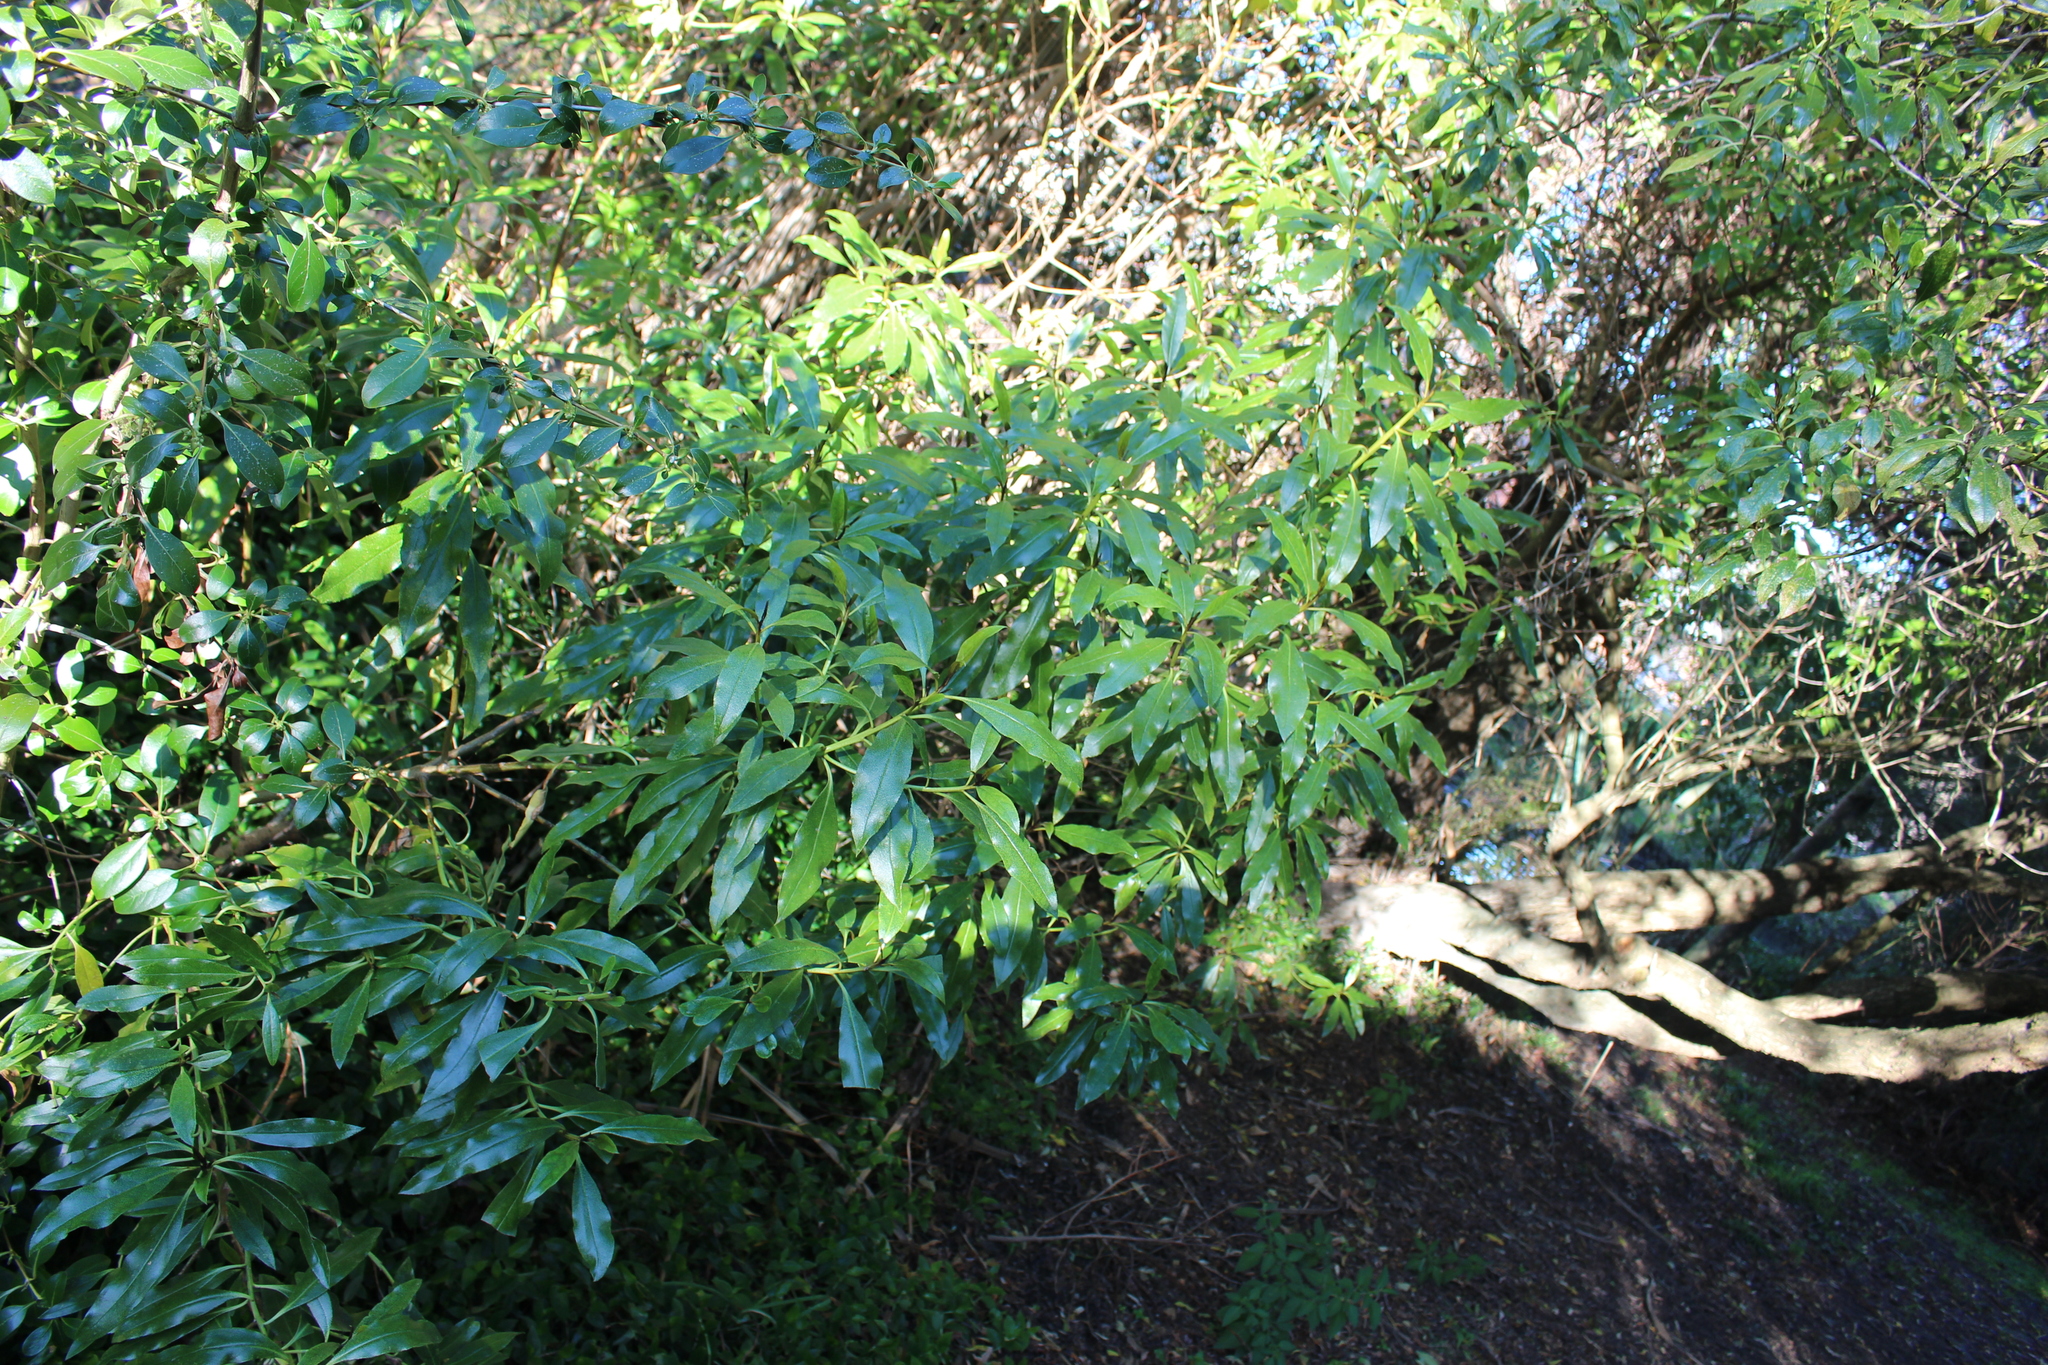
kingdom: Plantae
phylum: Tracheophyta
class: Magnoliopsida
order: Lamiales
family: Scrophulariaceae
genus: Myoporum
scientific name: Myoporum laetum
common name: Ngaio tree
